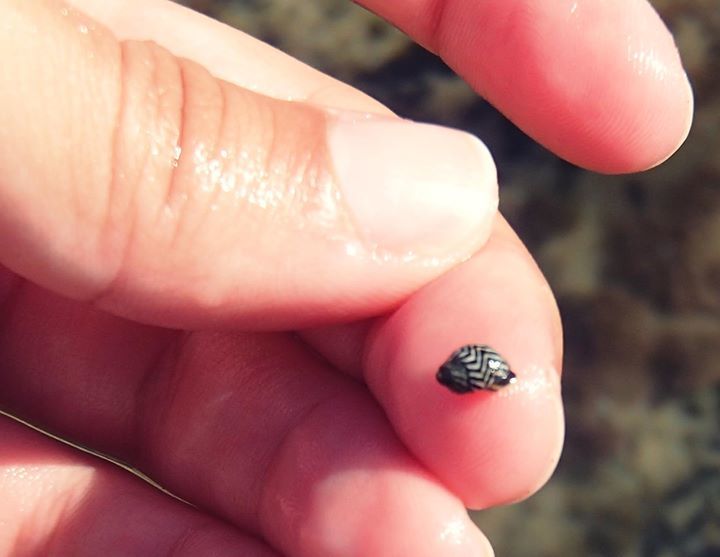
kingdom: Animalia
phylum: Mollusca
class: Gastropoda
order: Littorinimorpha
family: Littorinidae
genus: Echinolittorina
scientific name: Echinolittorina lineolata
